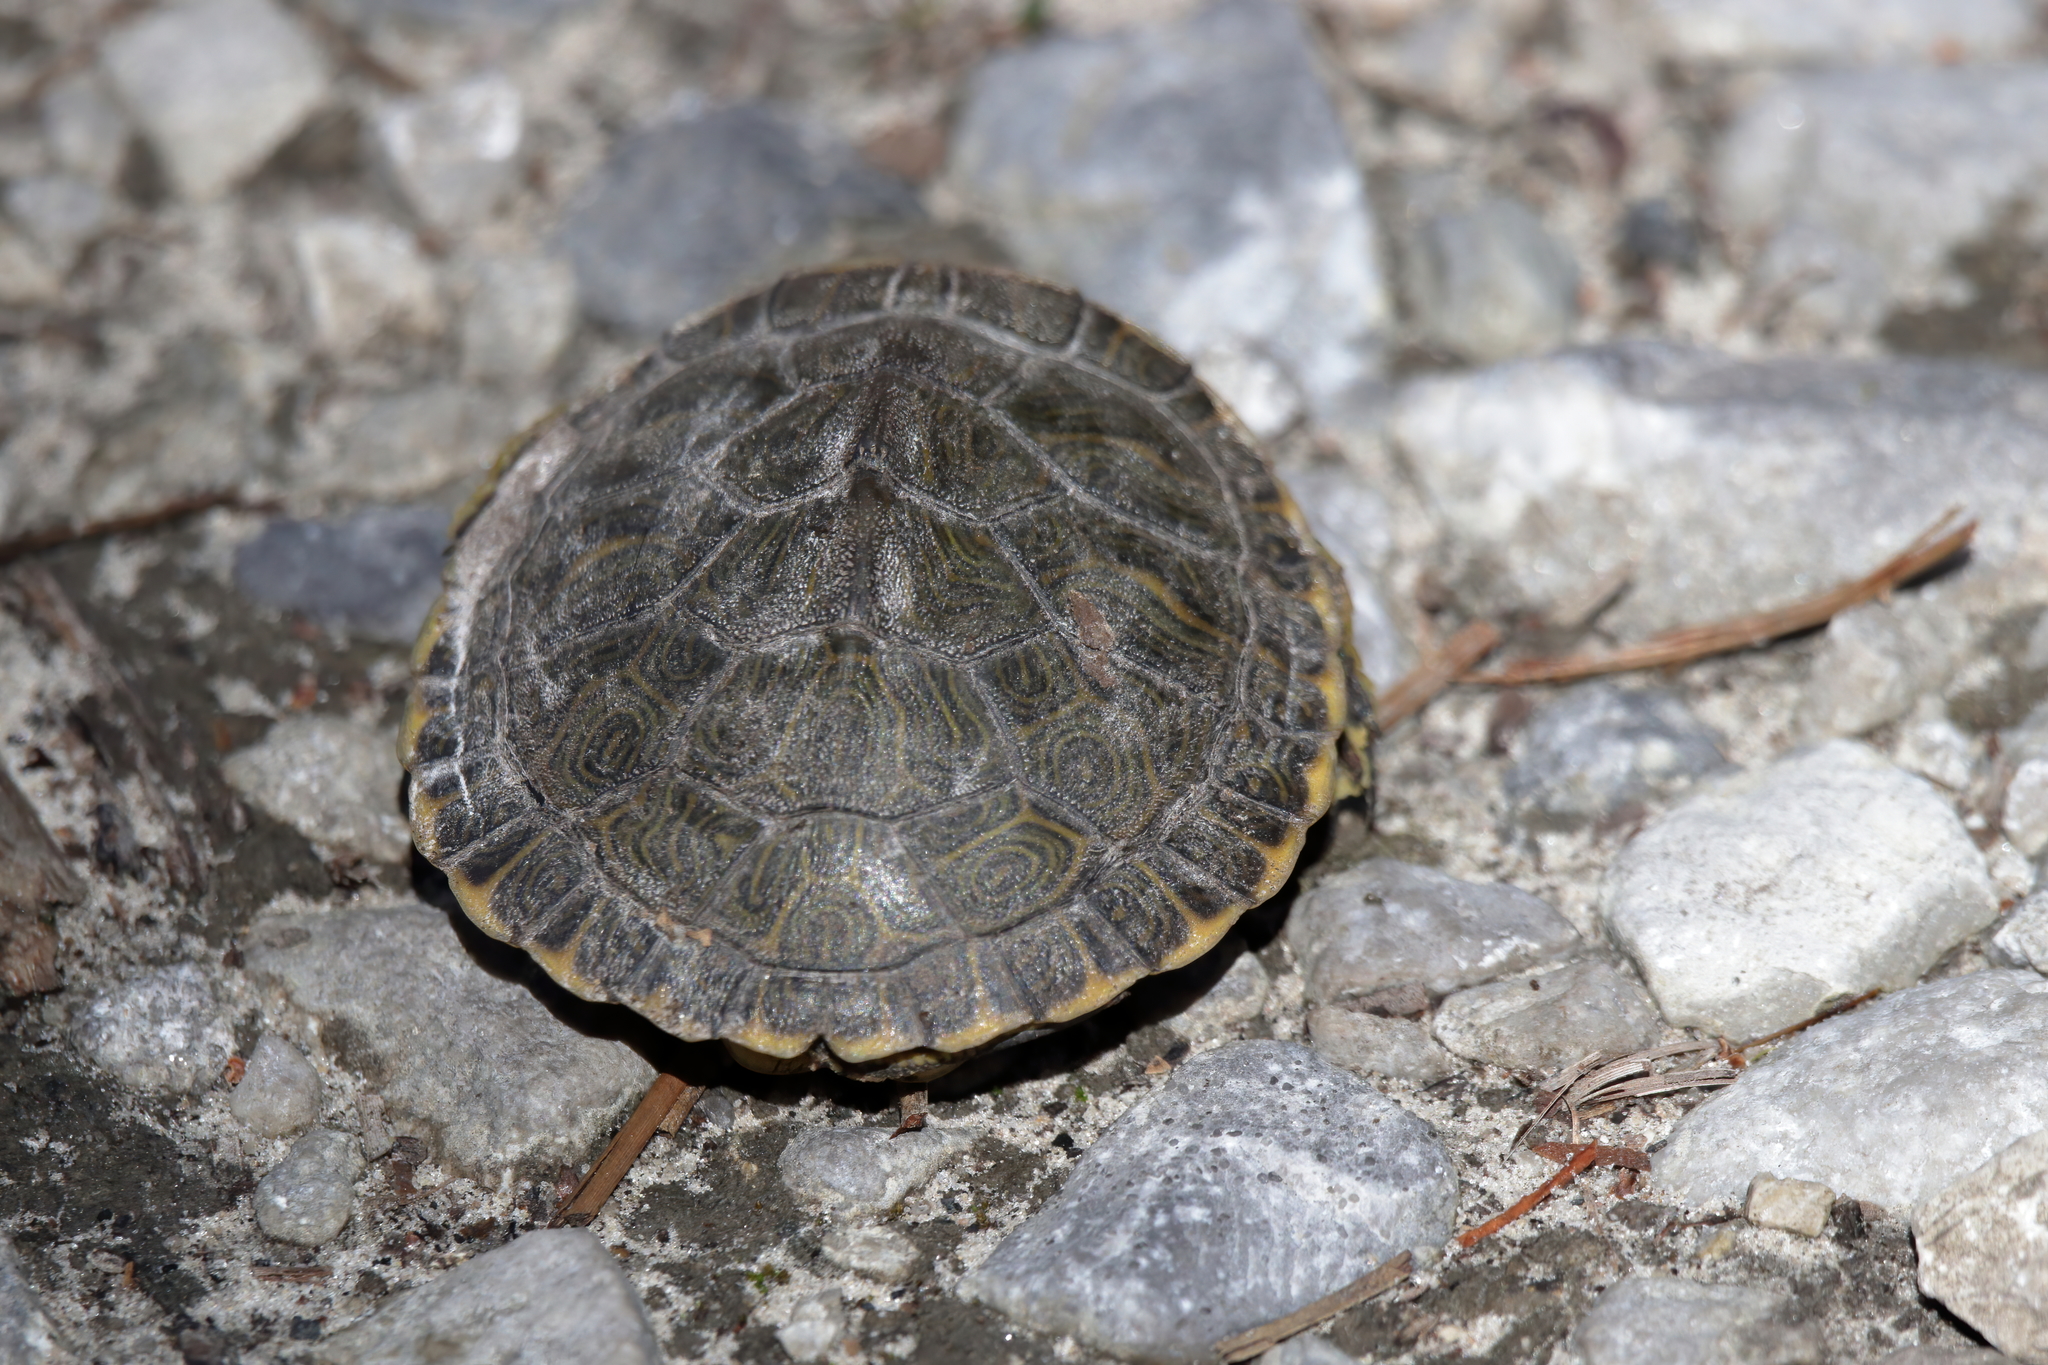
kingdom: Animalia
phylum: Chordata
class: Testudines
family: Emydidae
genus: Pseudemys
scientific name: Pseudemys concinna
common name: Eastern river cooter
